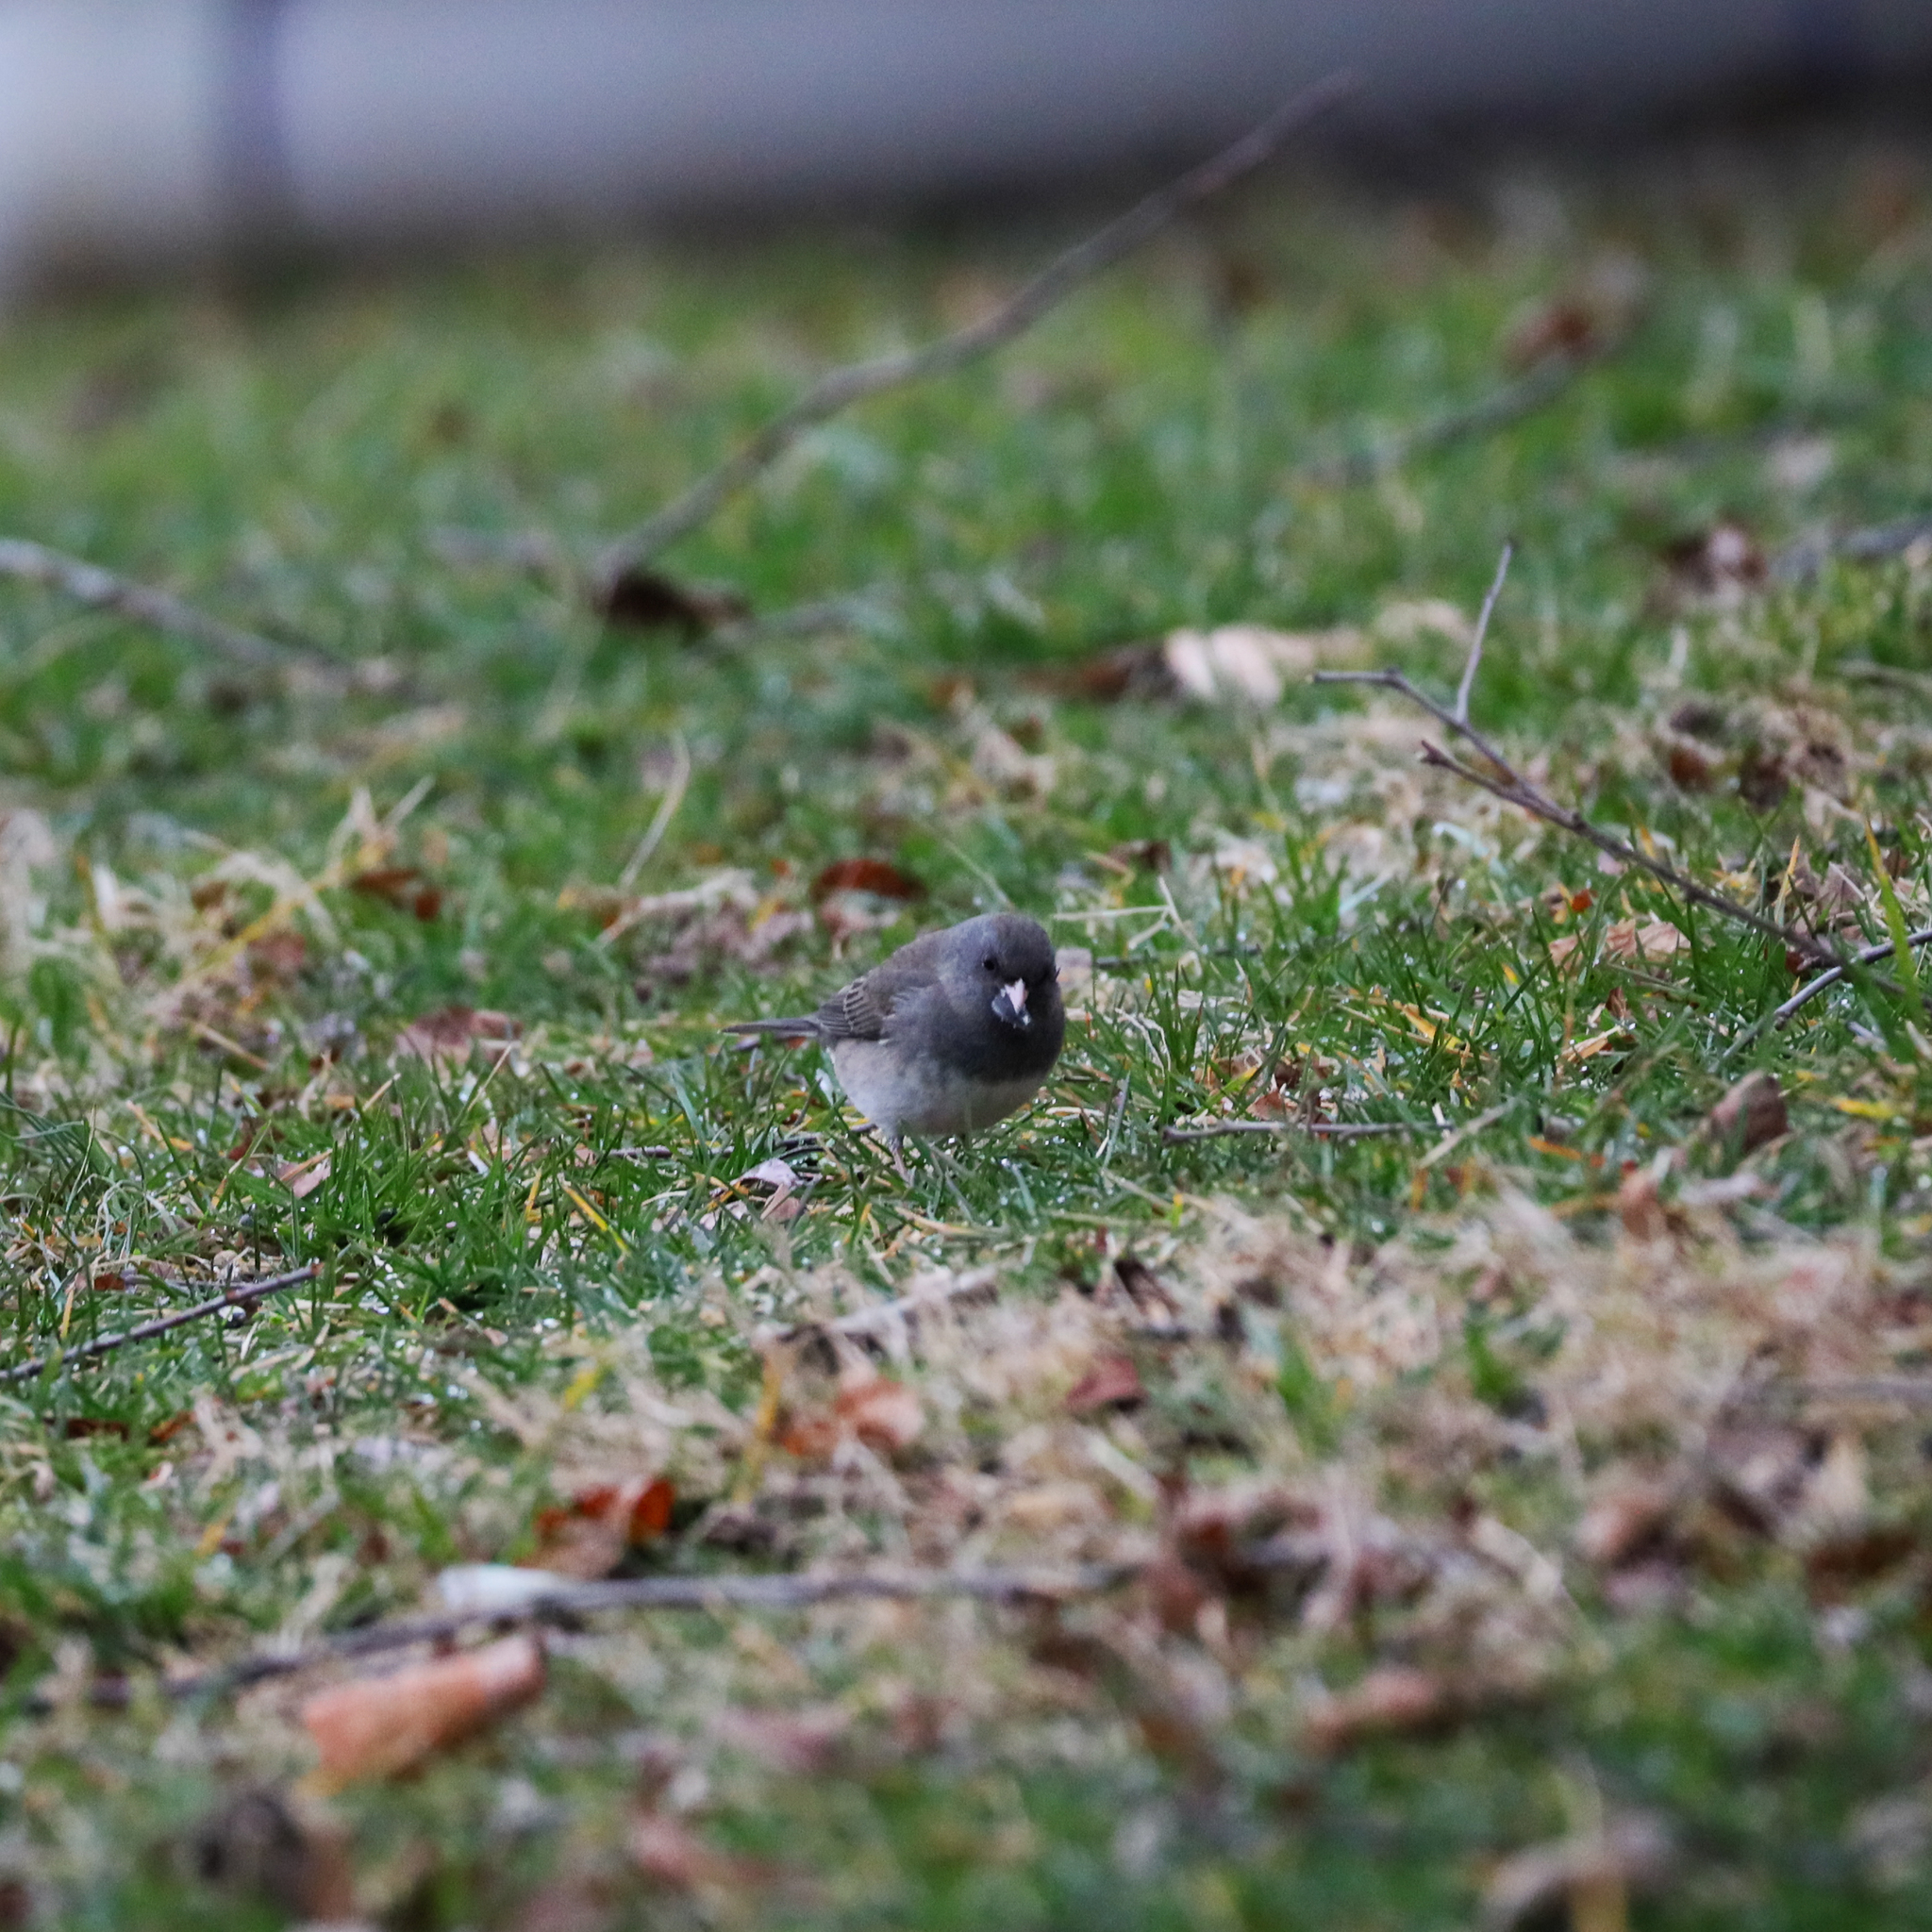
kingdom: Animalia
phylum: Chordata
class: Aves
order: Passeriformes
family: Passerellidae
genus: Junco
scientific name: Junco hyemalis
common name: Dark-eyed junco
